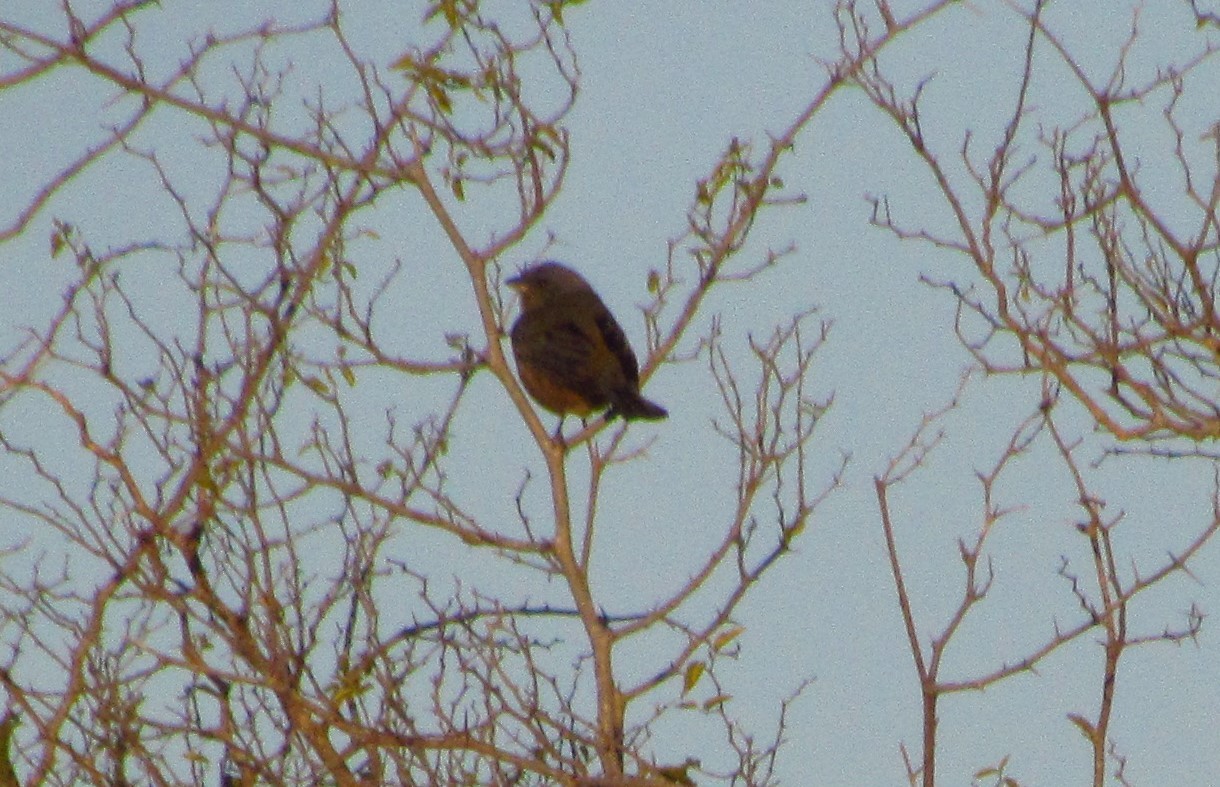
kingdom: Animalia
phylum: Chordata
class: Aves
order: Passeriformes
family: Thraupidae
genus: Rauenia
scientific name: Rauenia bonariensis
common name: Blue-and-yellow tanager
